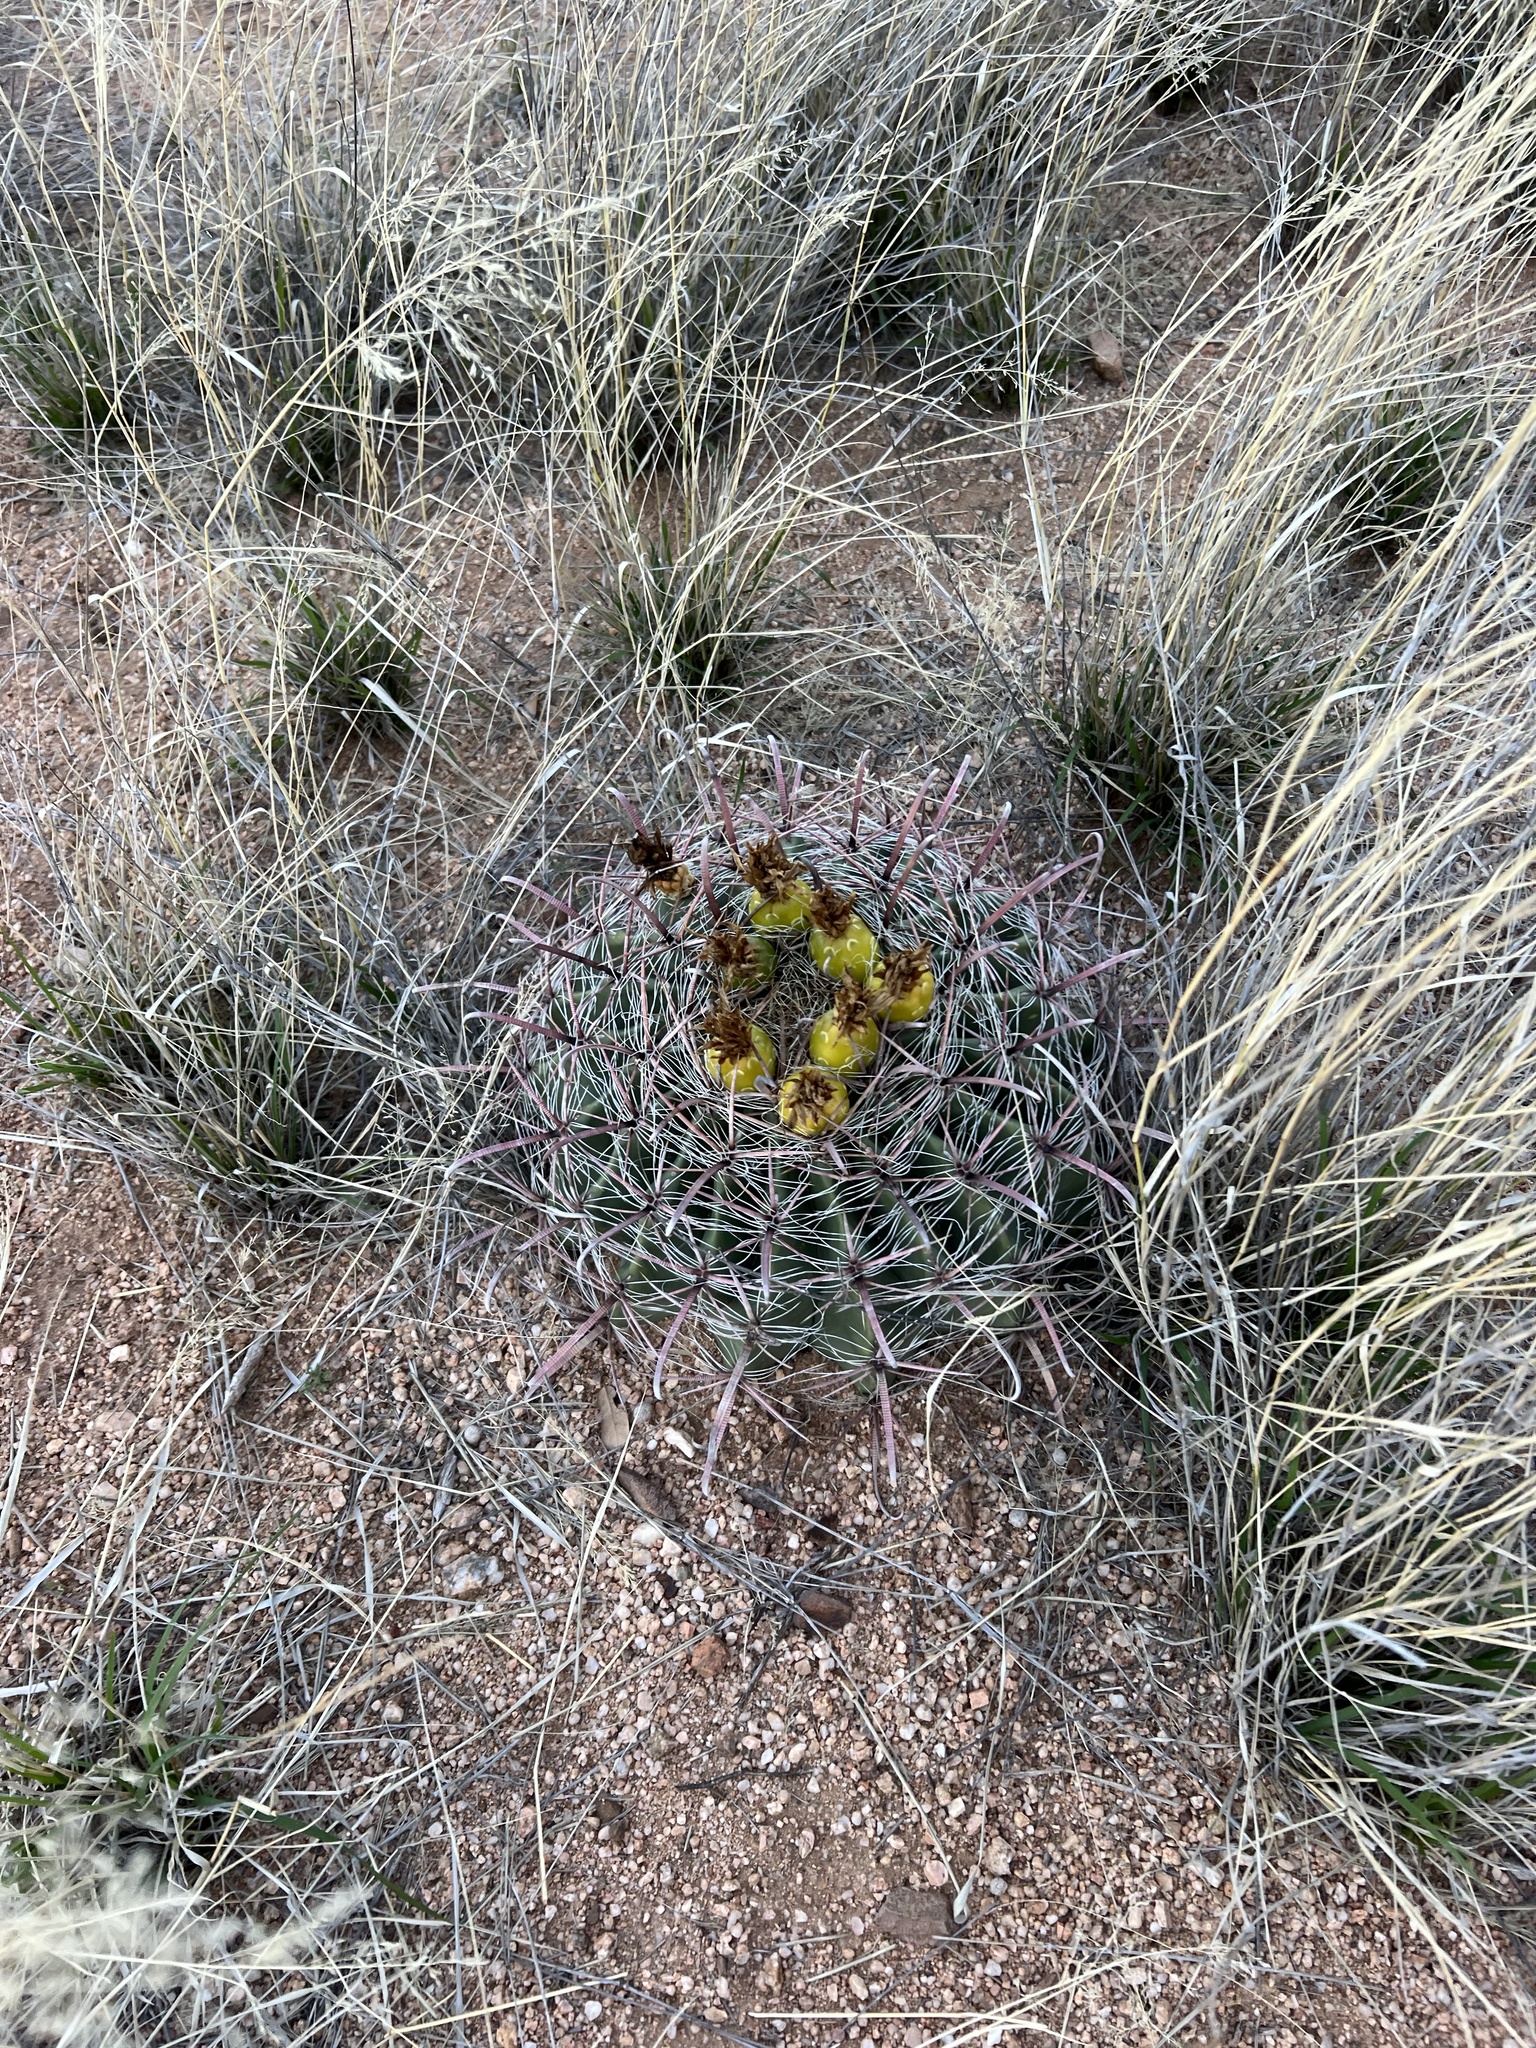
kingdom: Plantae
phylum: Tracheophyta
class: Magnoliopsida
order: Caryophyllales
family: Cactaceae
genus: Ferocactus
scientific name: Ferocactus wislizeni
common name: Candy barrel cactus
